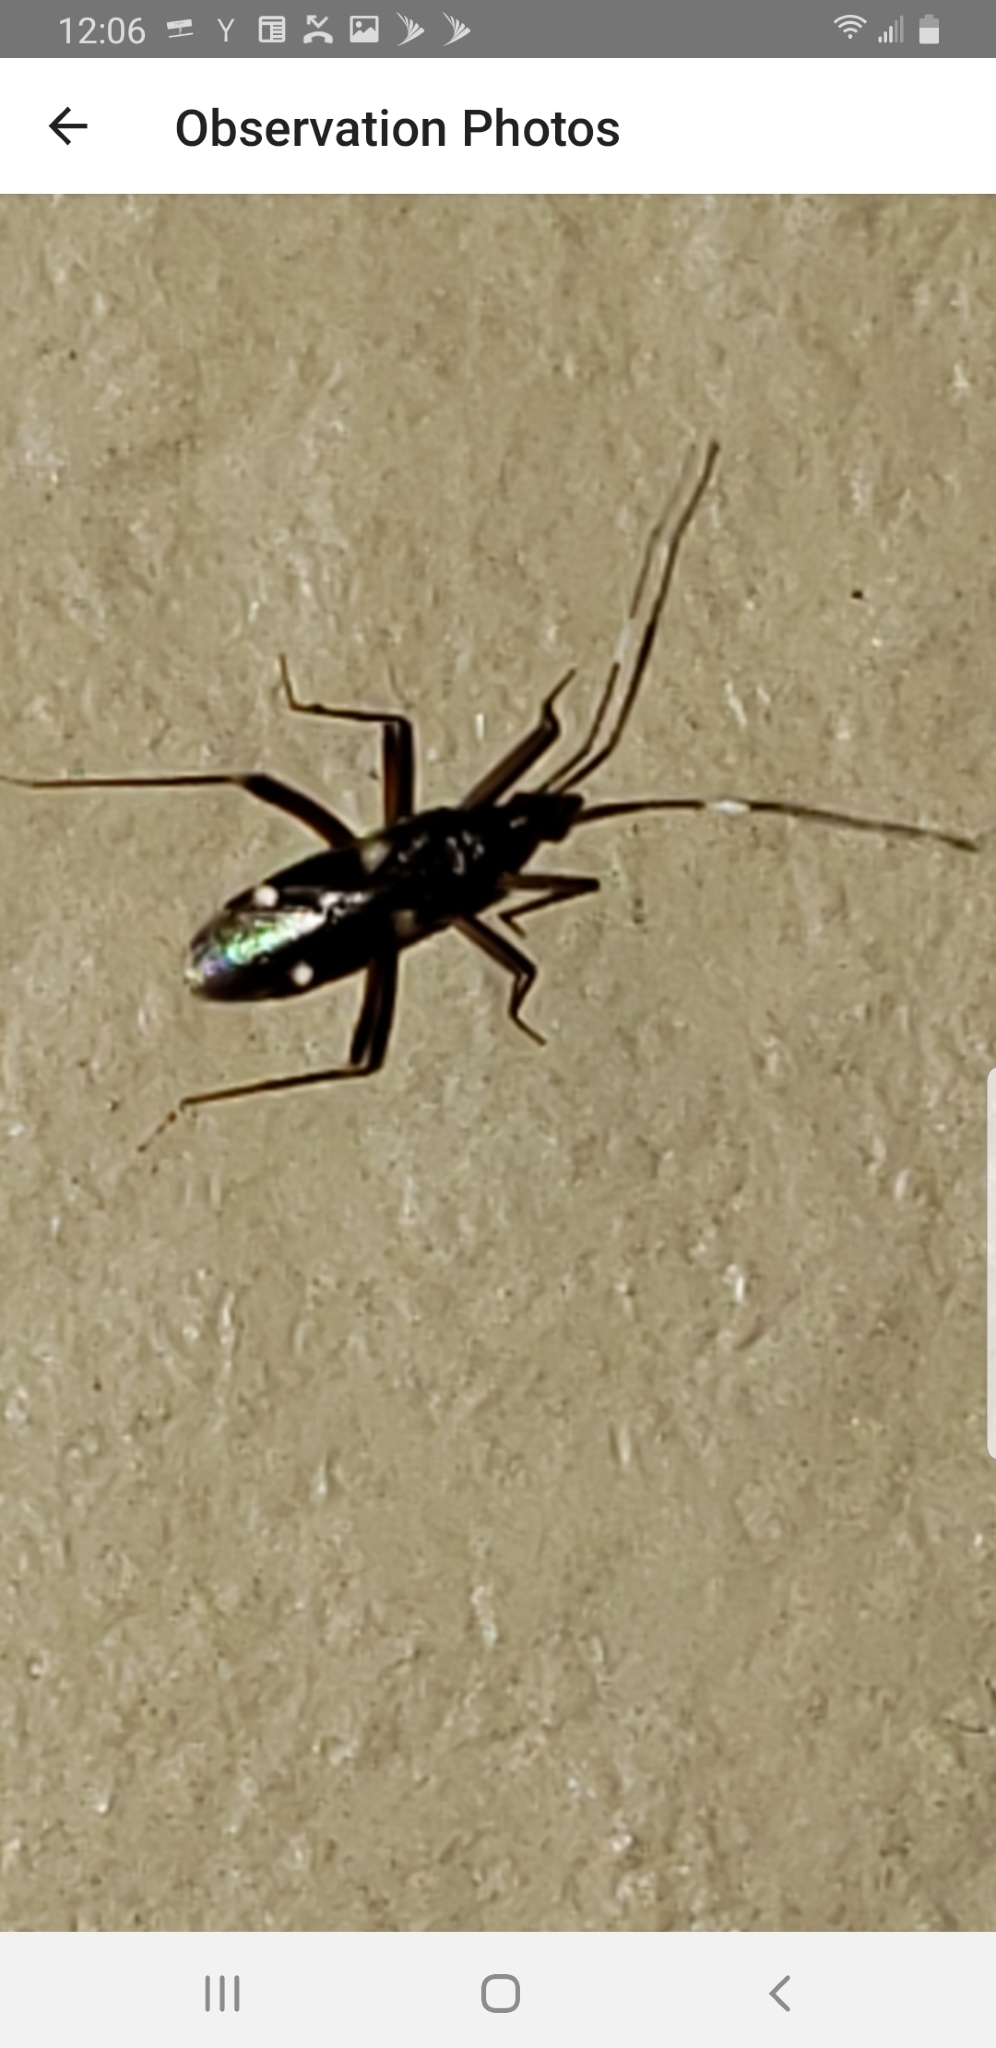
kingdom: Animalia
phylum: Arthropoda
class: Insecta
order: Hemiptera
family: Miridae
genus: Fulvius
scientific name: Fulvius imbecilis
